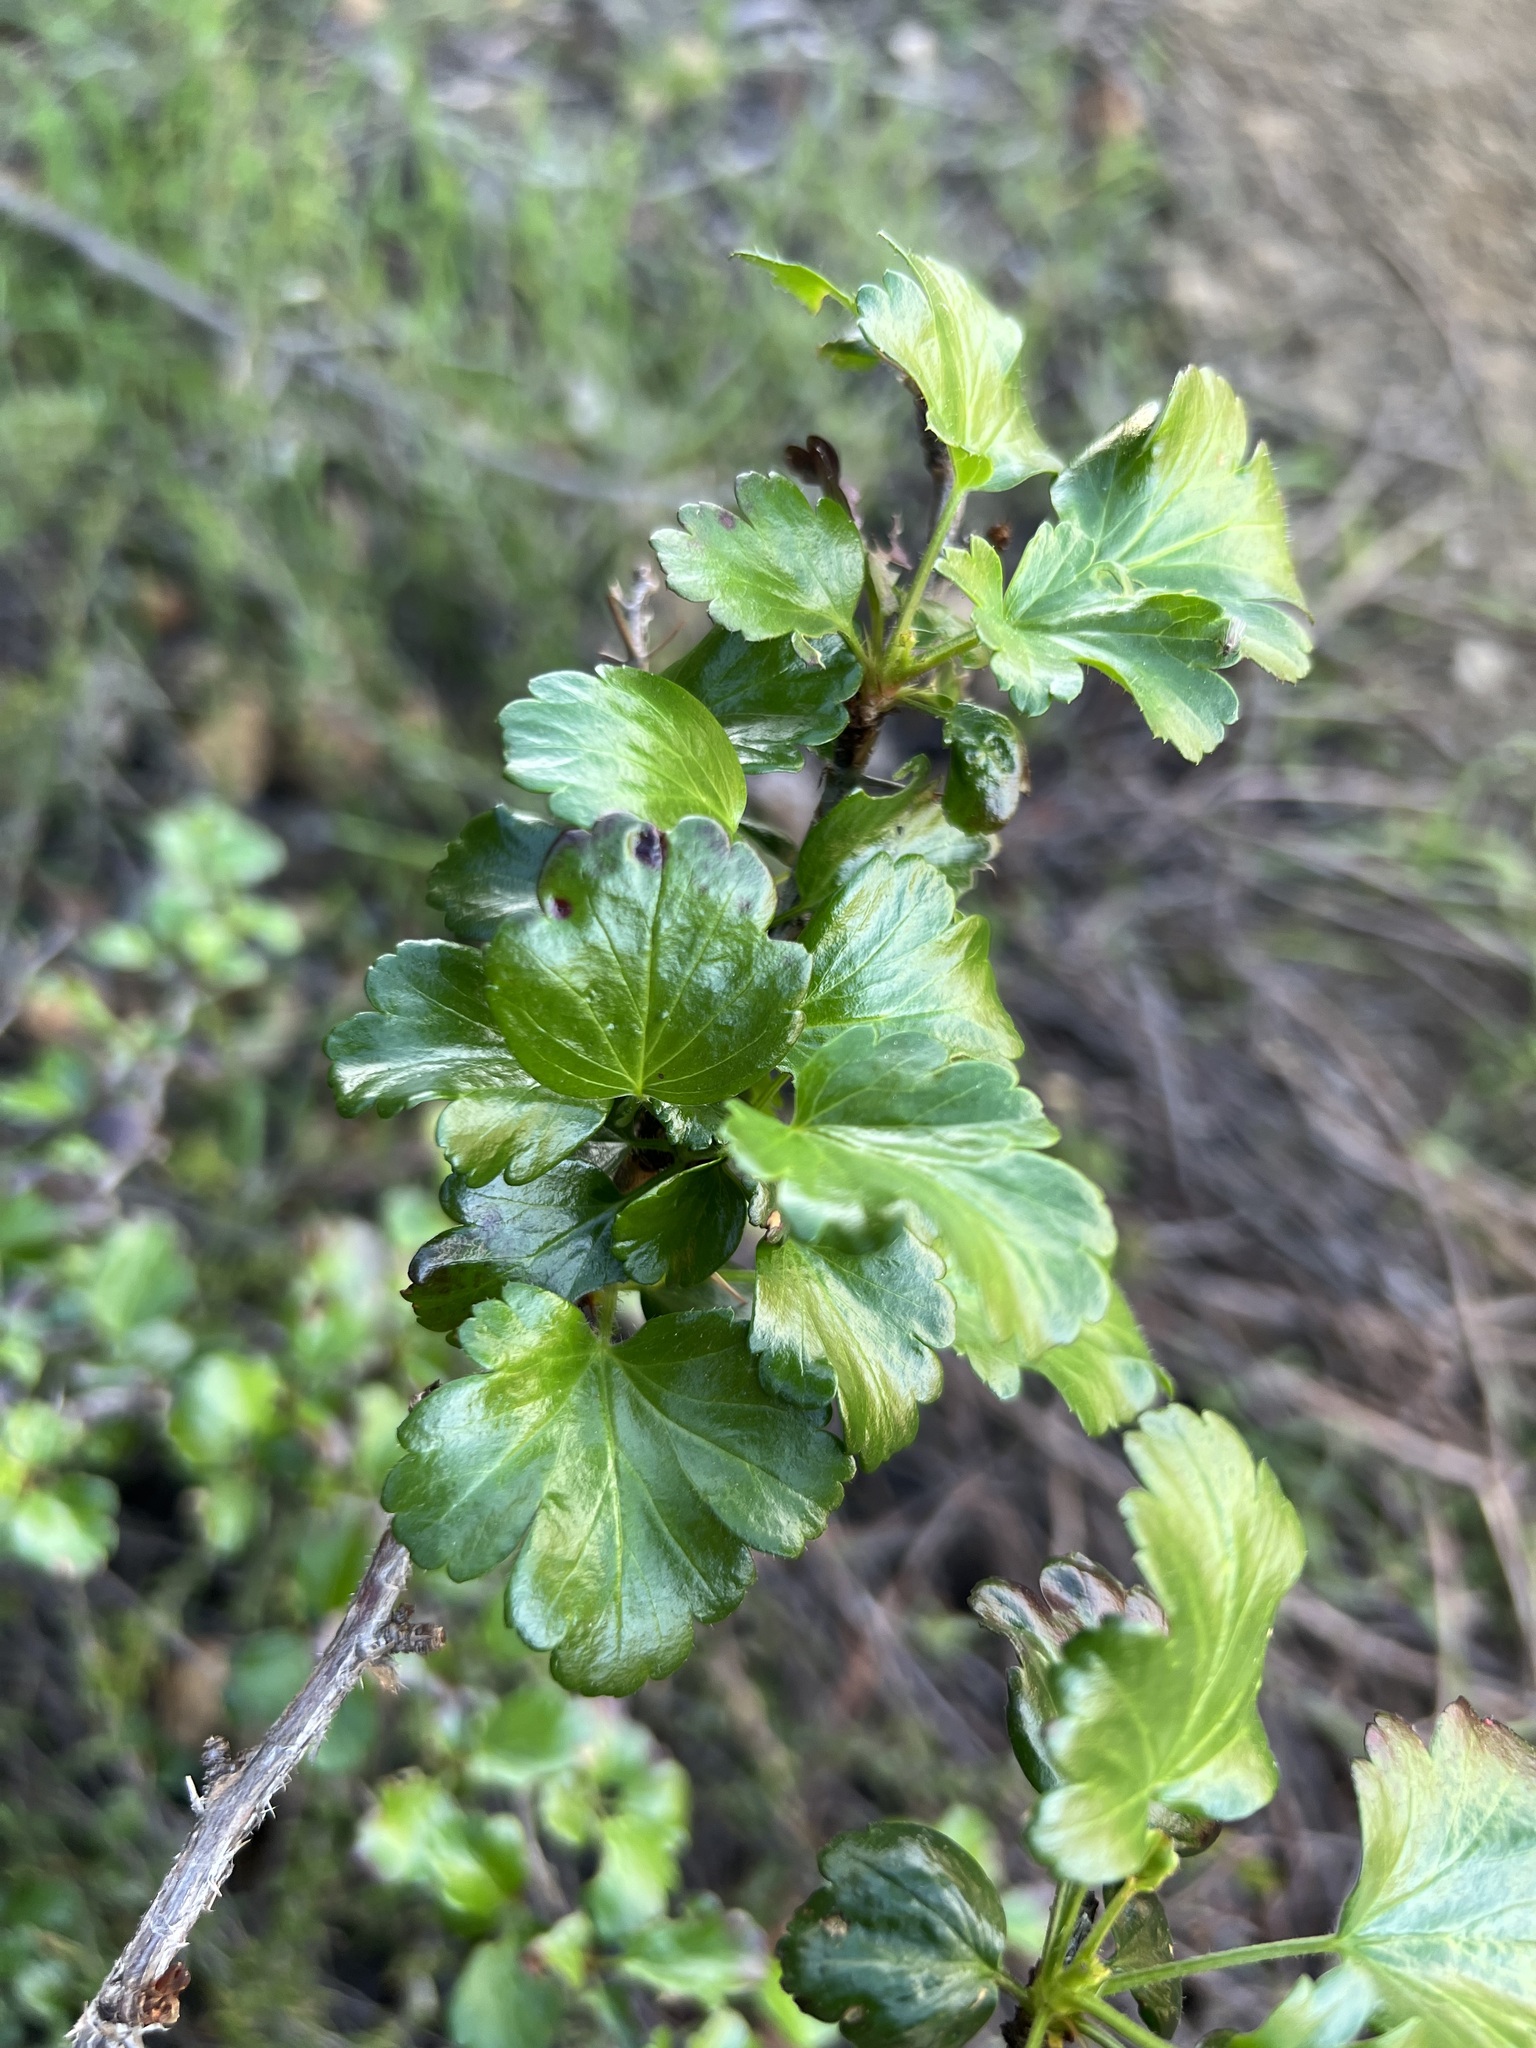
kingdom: Plantae
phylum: Tracheophyta
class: Magnoliopsida
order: Saxifragales
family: Grossulariaceae
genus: Ribes
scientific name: Ribes speciosum
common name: Fuchsia-flower gooseberry
